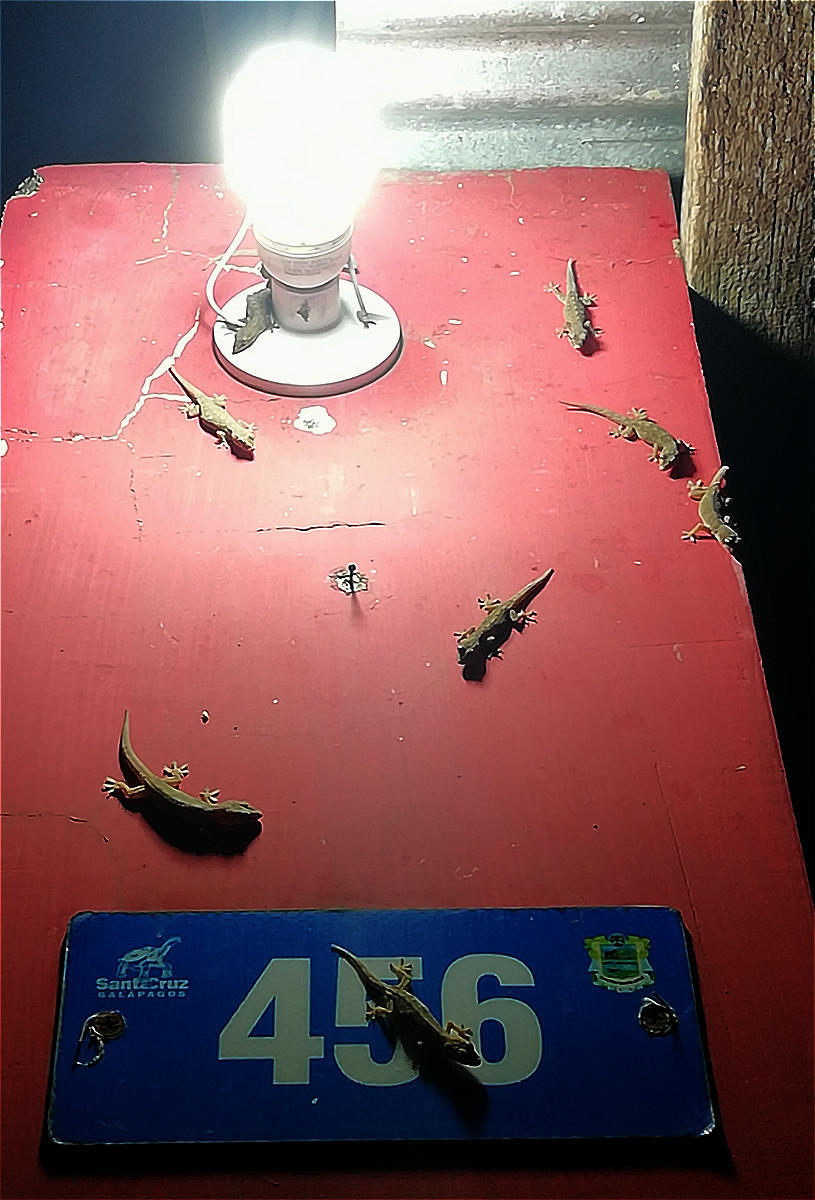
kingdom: Animalia
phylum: Chordata
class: Squamata
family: Phyllodactylidae
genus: Phyllodactylus
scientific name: Phyllodactylus reissii
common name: Peters' leaf-toed gecko
